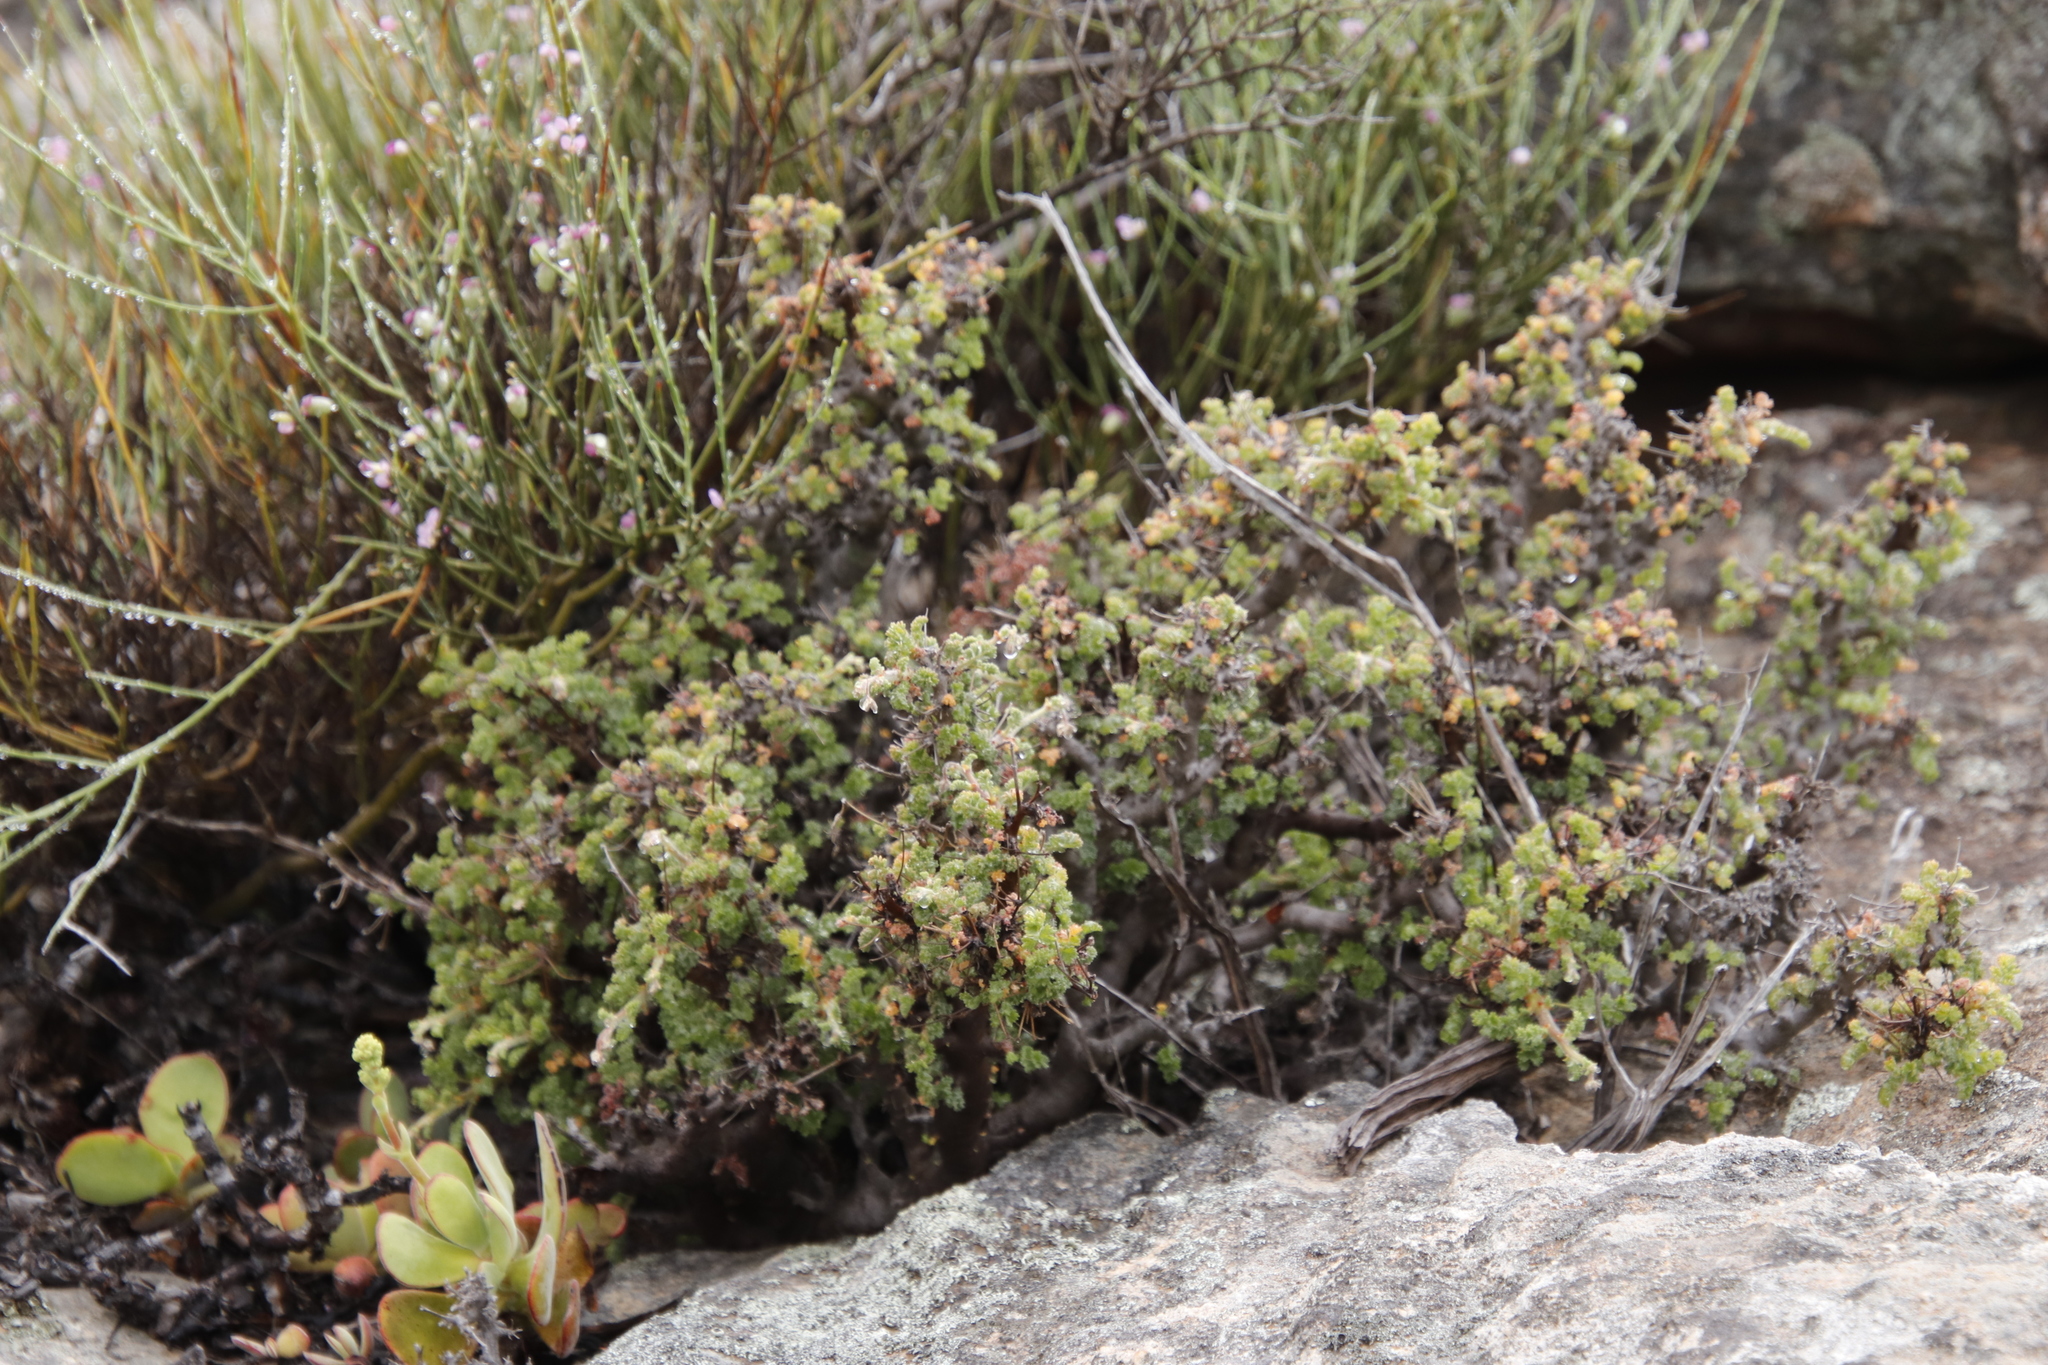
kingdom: Plantae
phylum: Tracheophyta
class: Magnoliopsida
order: Geraniales
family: Geraniaceae
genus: Pelargonium
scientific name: Pelargonium alternans
